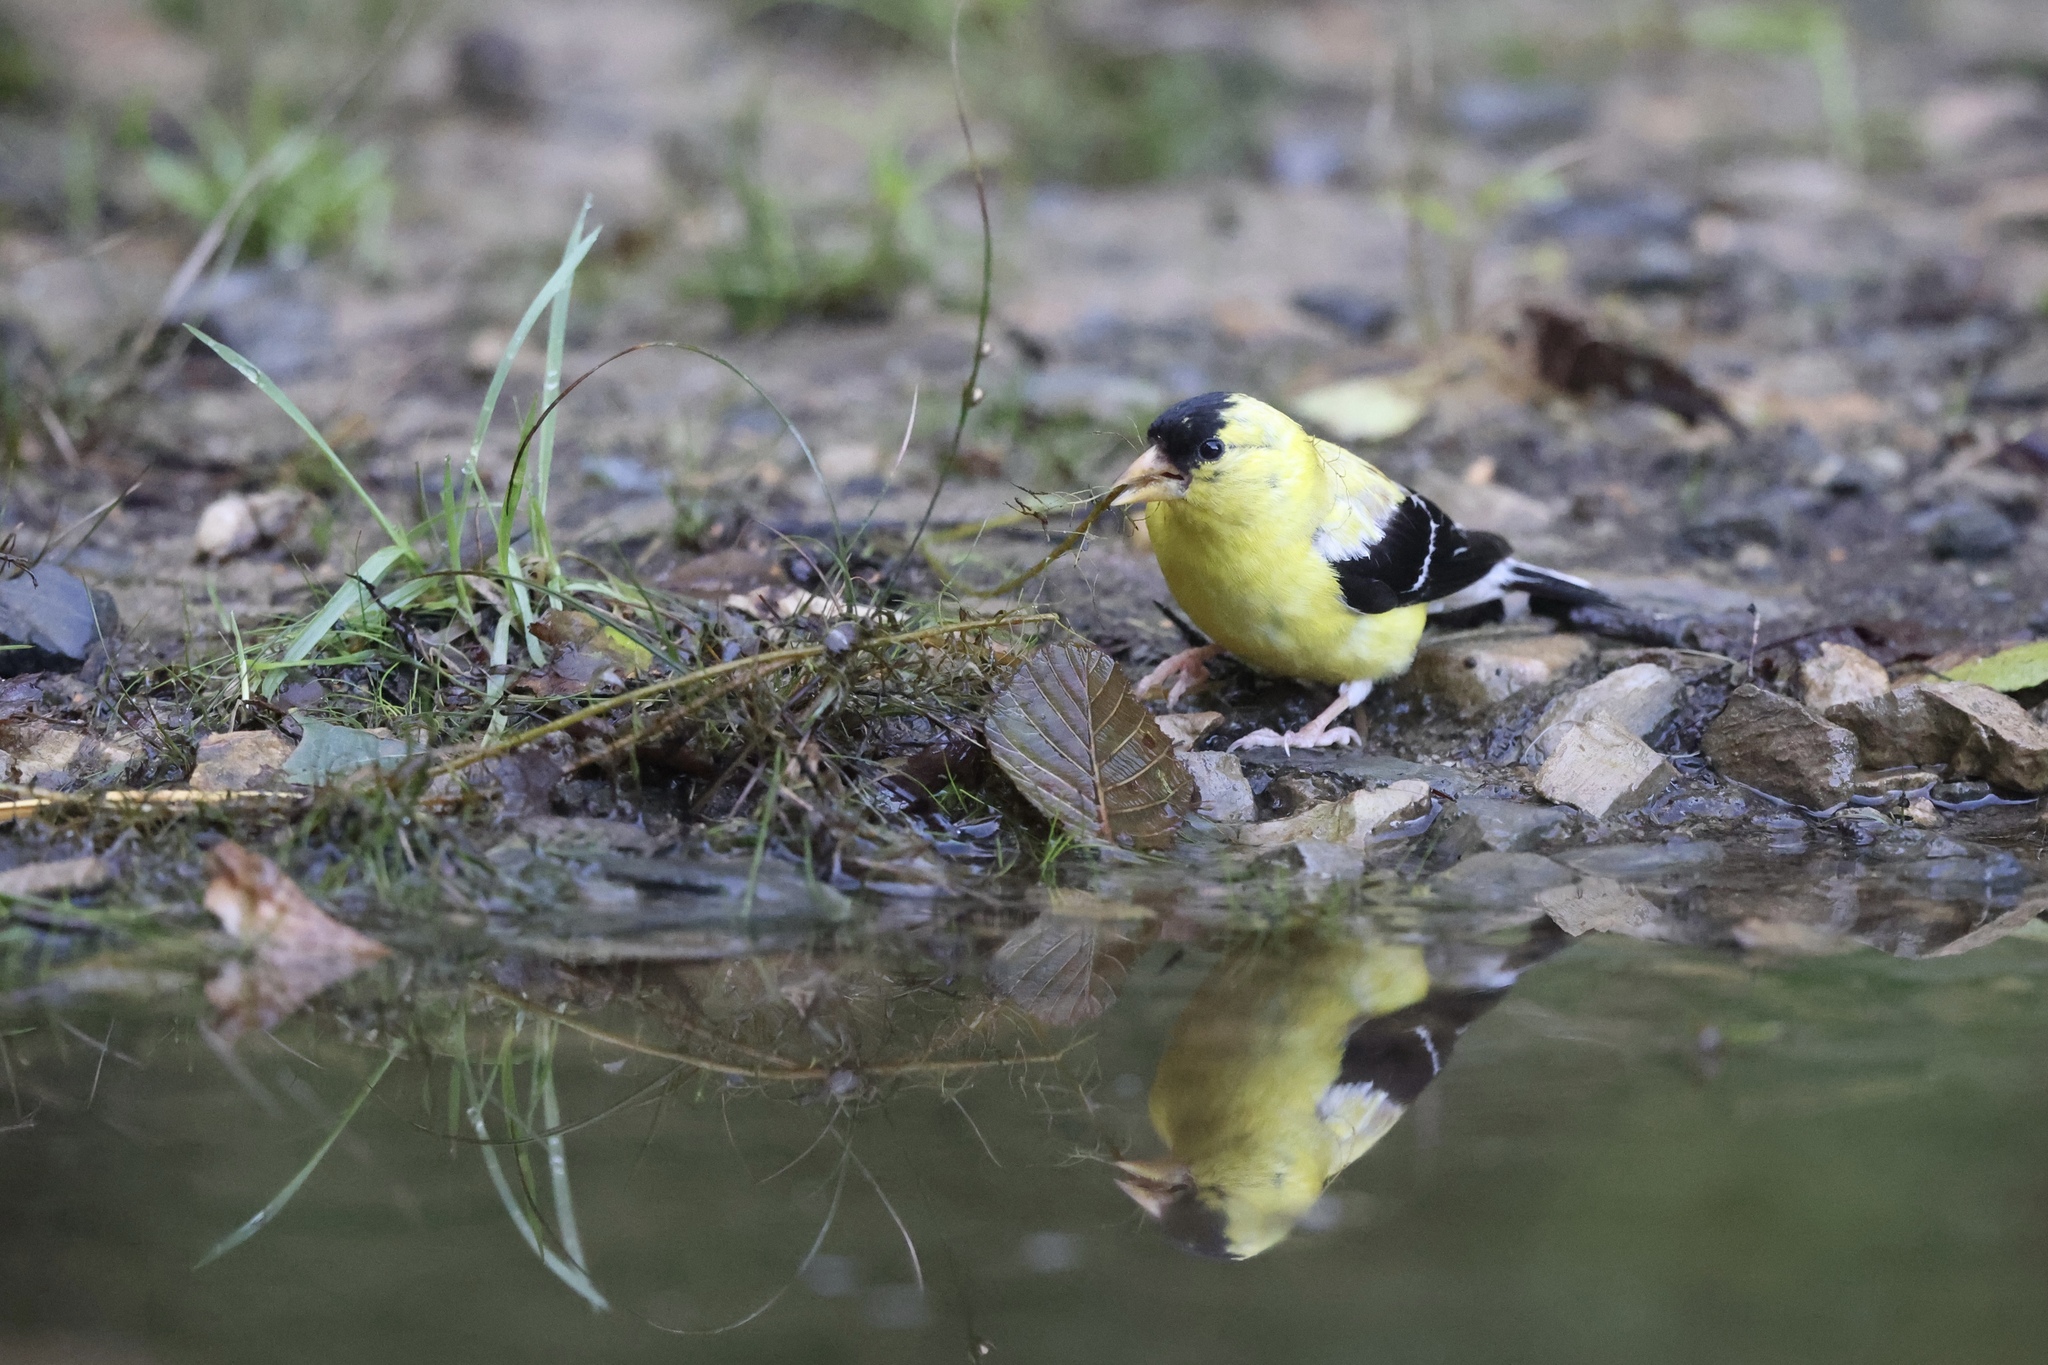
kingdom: Animalia
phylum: Chordata
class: Aves
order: Passeriformes
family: Fringillidae
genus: Spinus
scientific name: Spinus tristis
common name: American goldfinch
